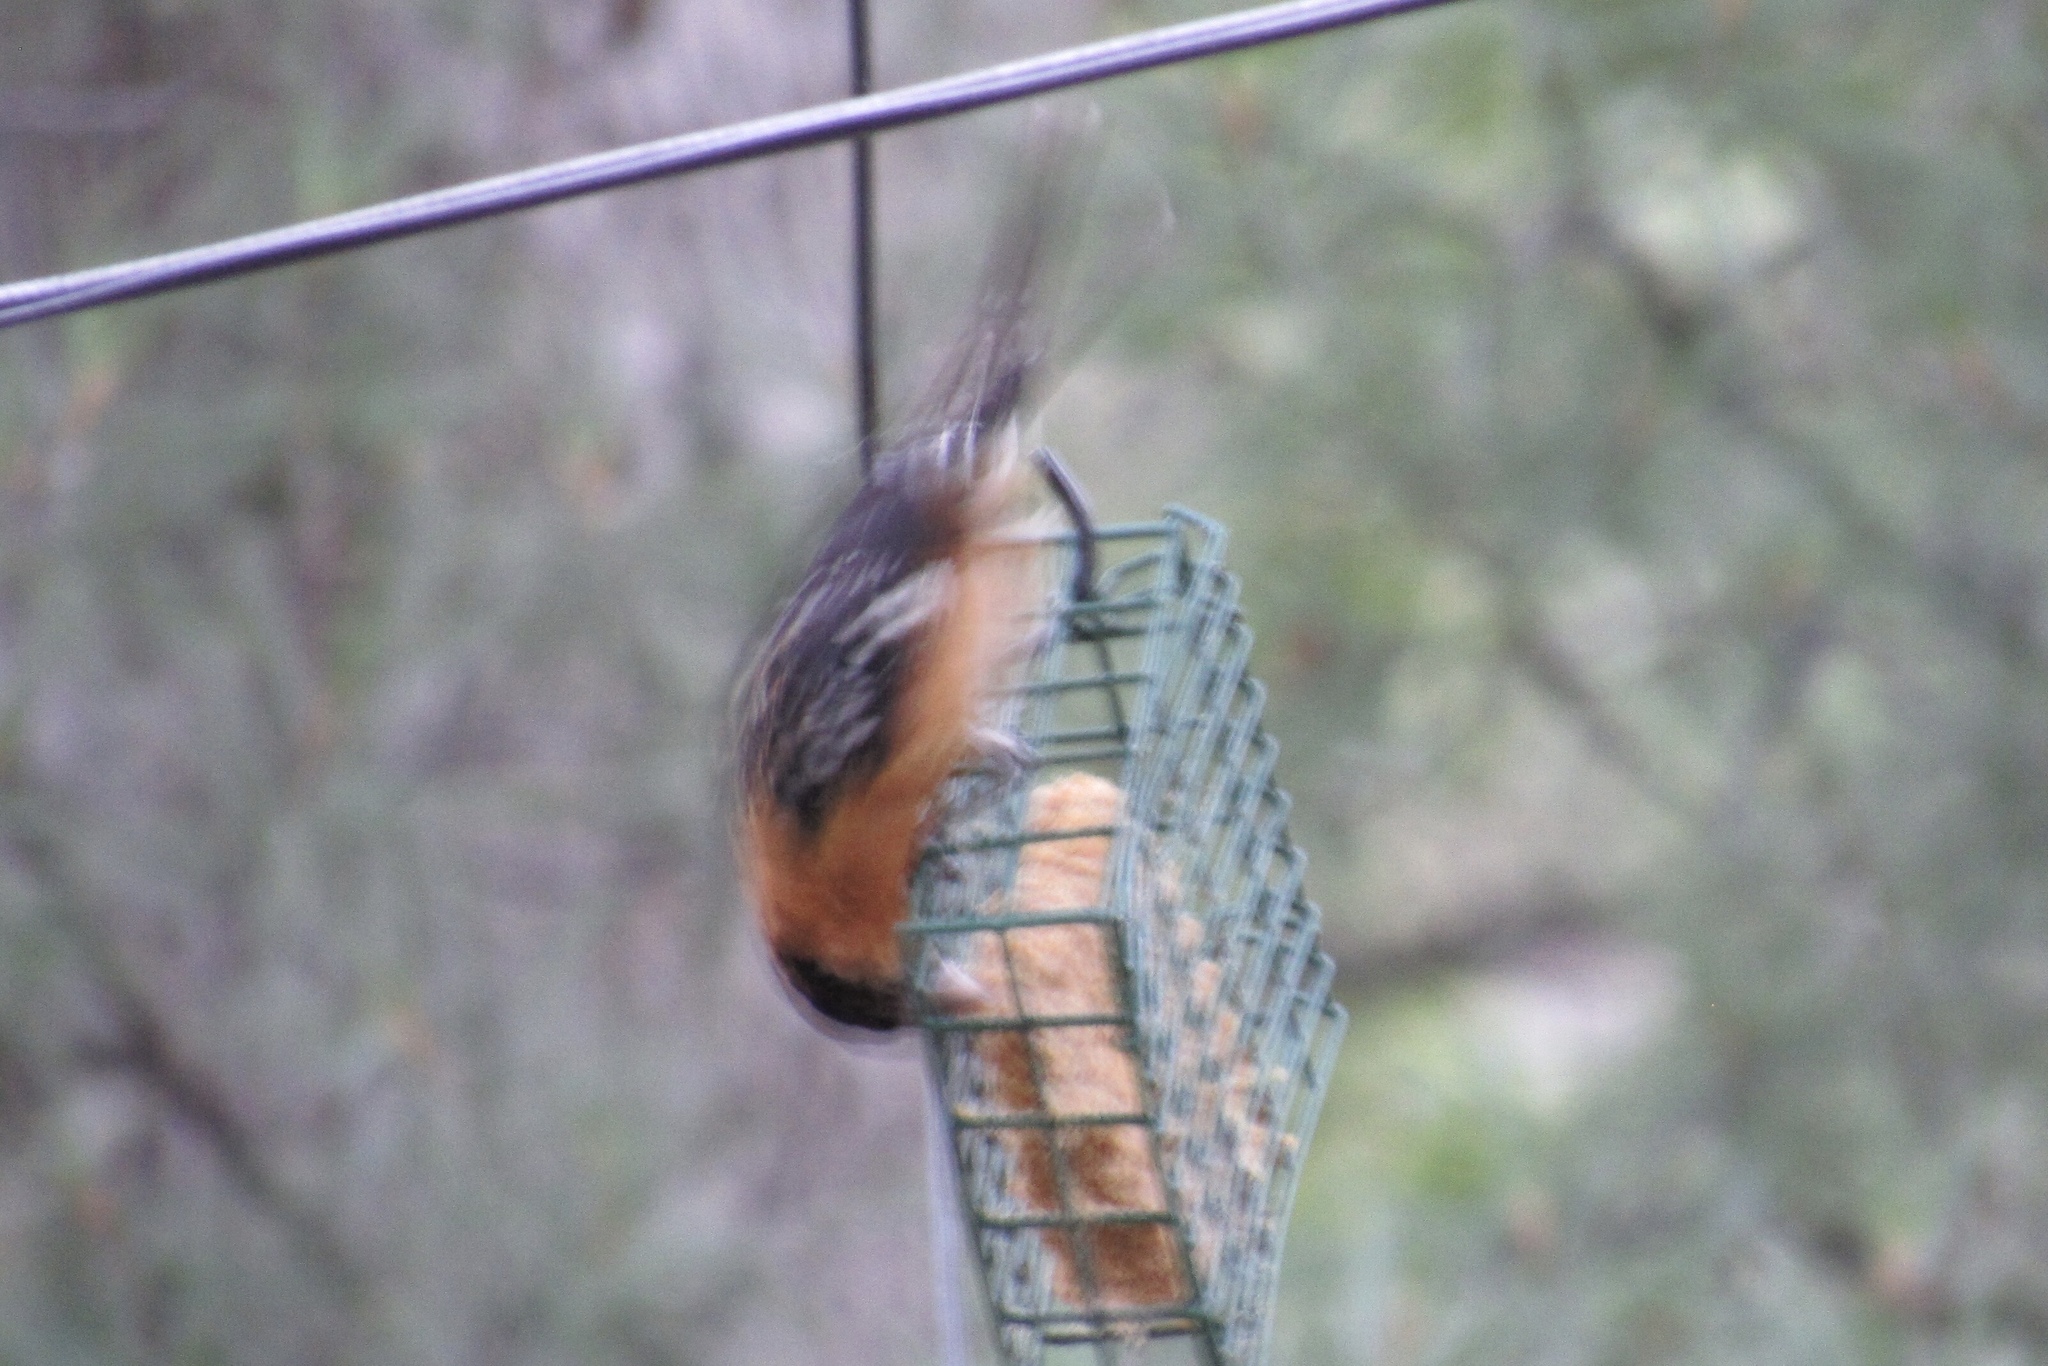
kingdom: Animalia
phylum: Chordata
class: Aves
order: Passeriformes
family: Cardinalidae
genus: Pheucticus
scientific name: Pheucticus melanocephalus
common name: Black-headed grosbeak
